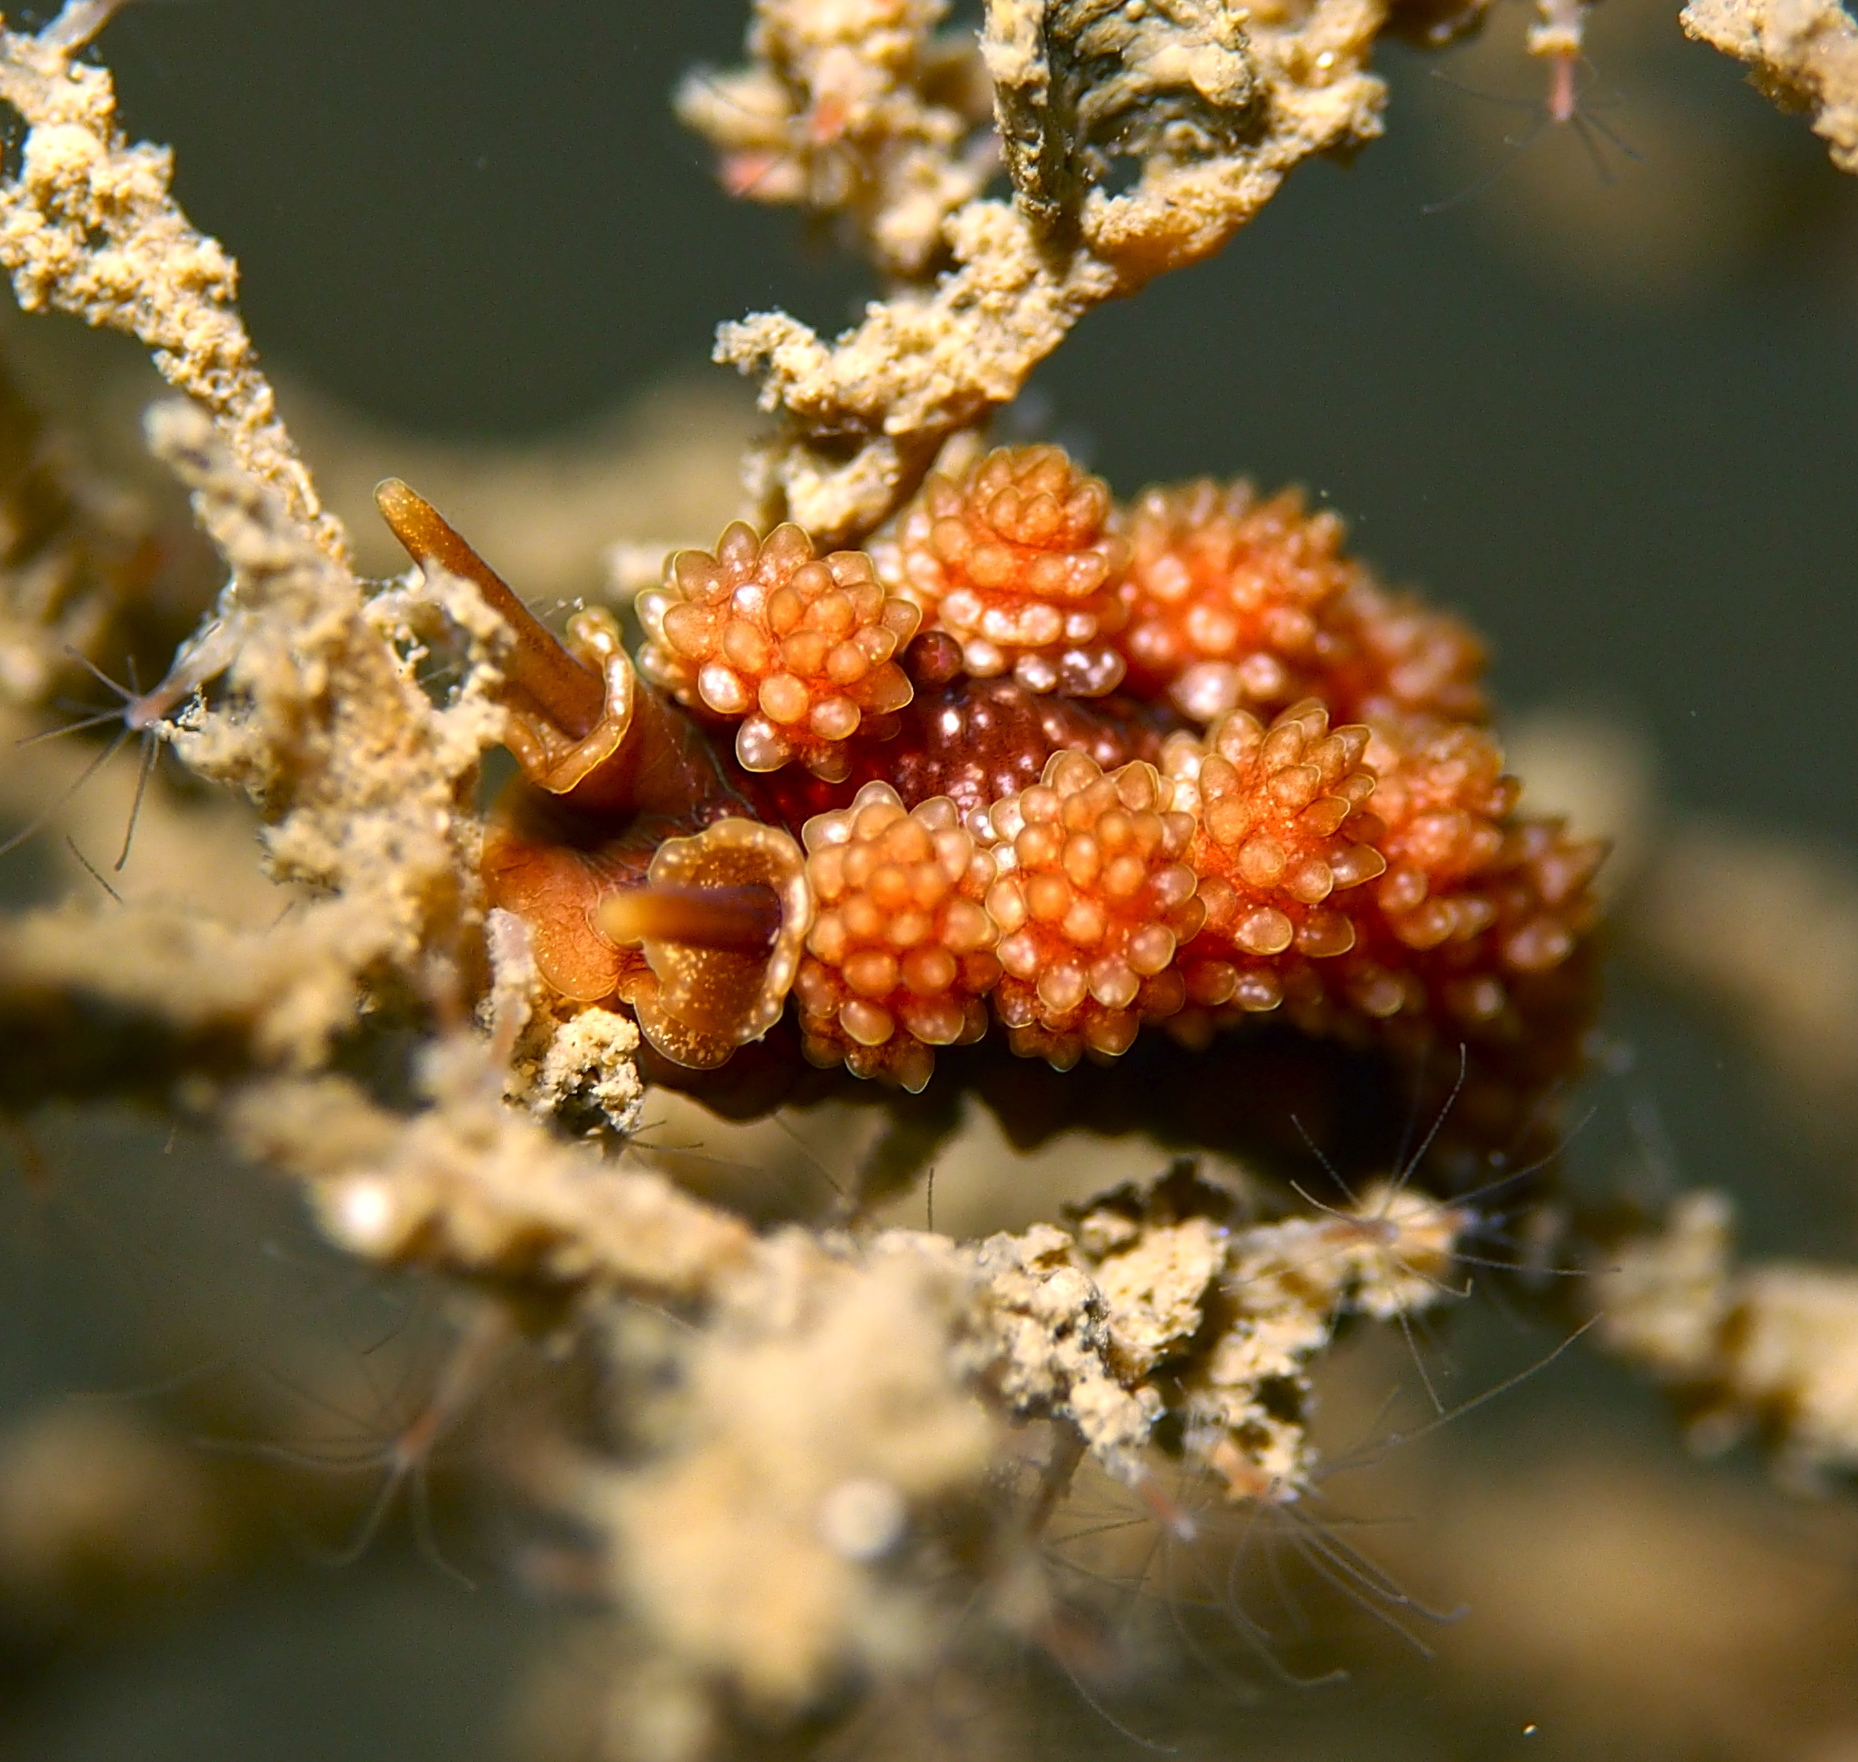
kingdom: Animalia
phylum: Mollusca
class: Gastropoda
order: Nudibranchia
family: Dotidae
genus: Doto
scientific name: Doto fragilis
